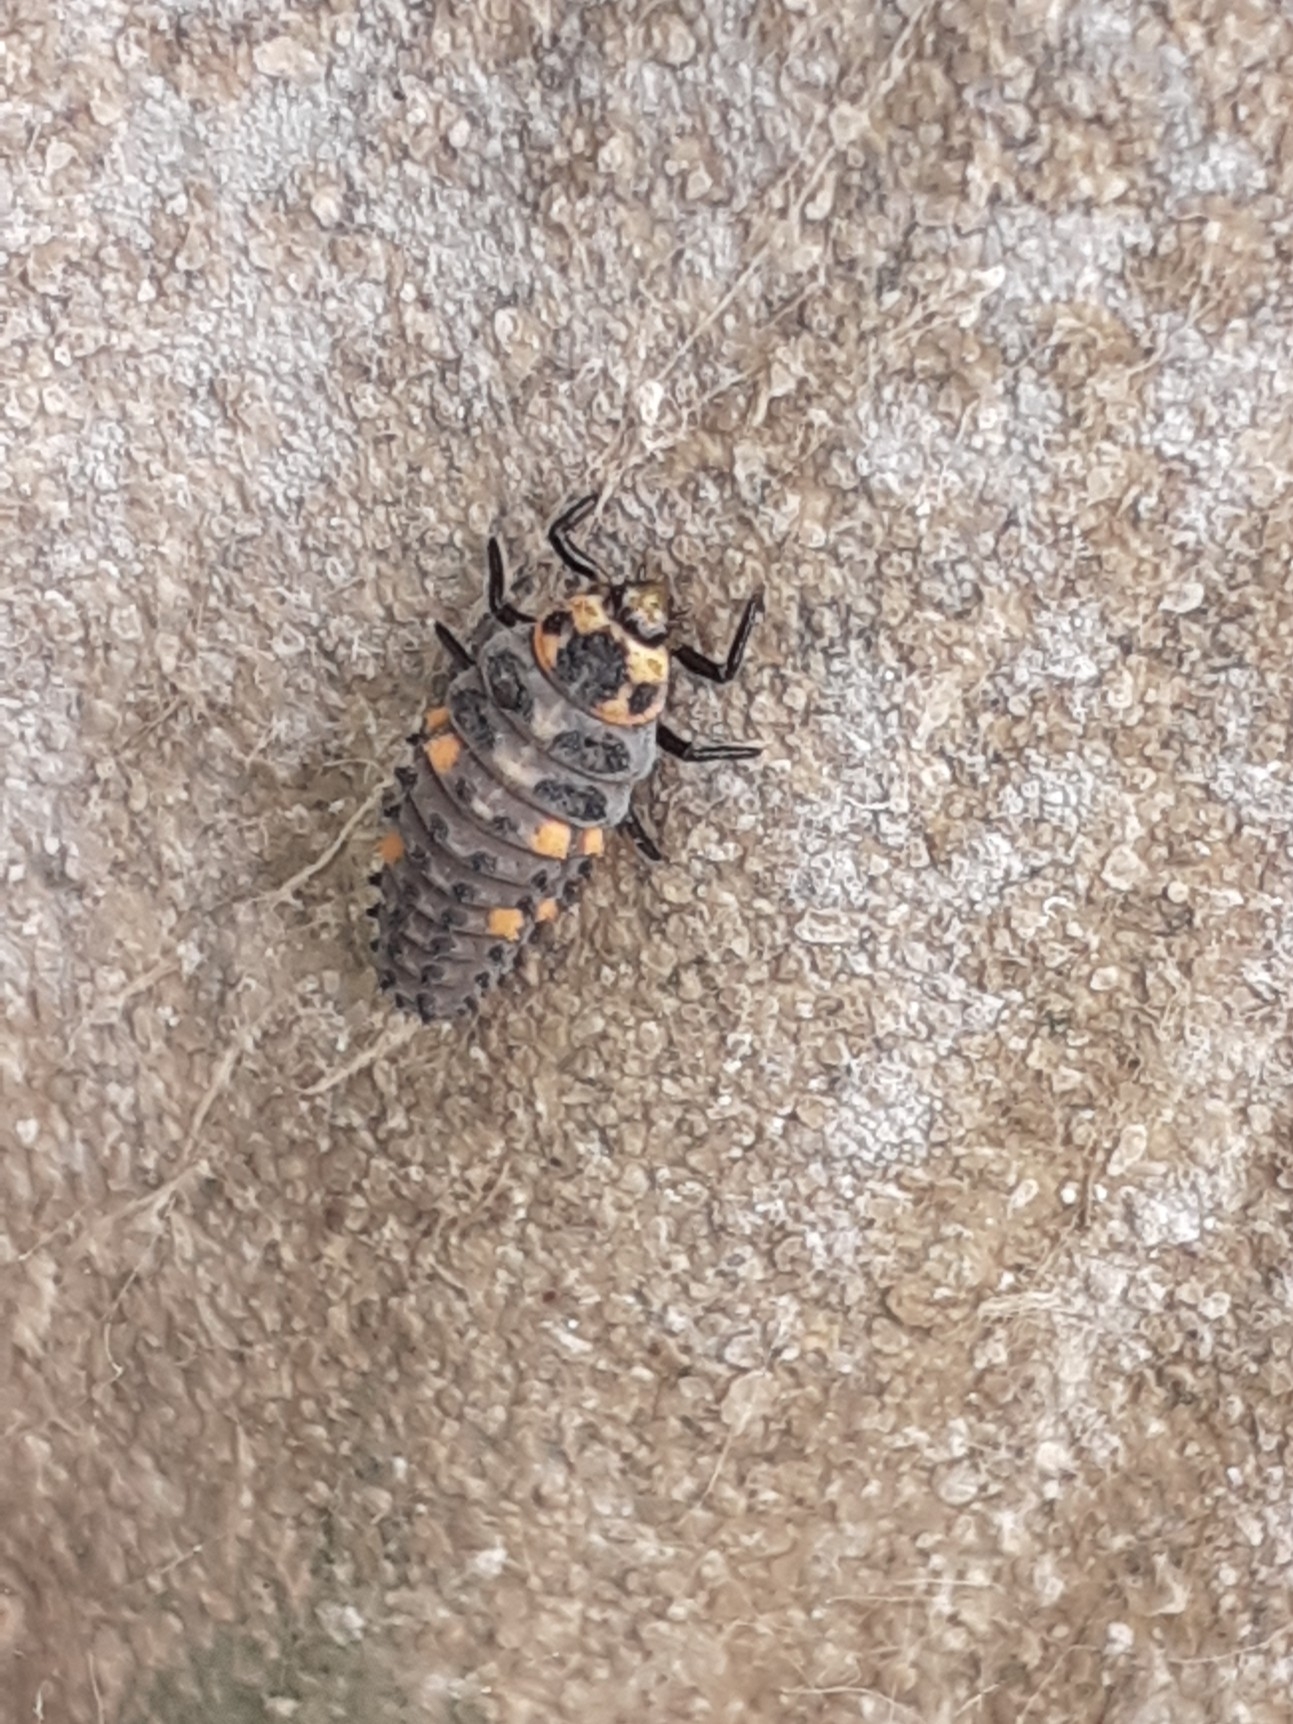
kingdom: Animalia
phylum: Arthropoda
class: Insecta
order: Coleoptera
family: Coccinellidae
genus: Coccinella
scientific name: Coccinella septempunctata
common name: Sevenspotted lady beetle
